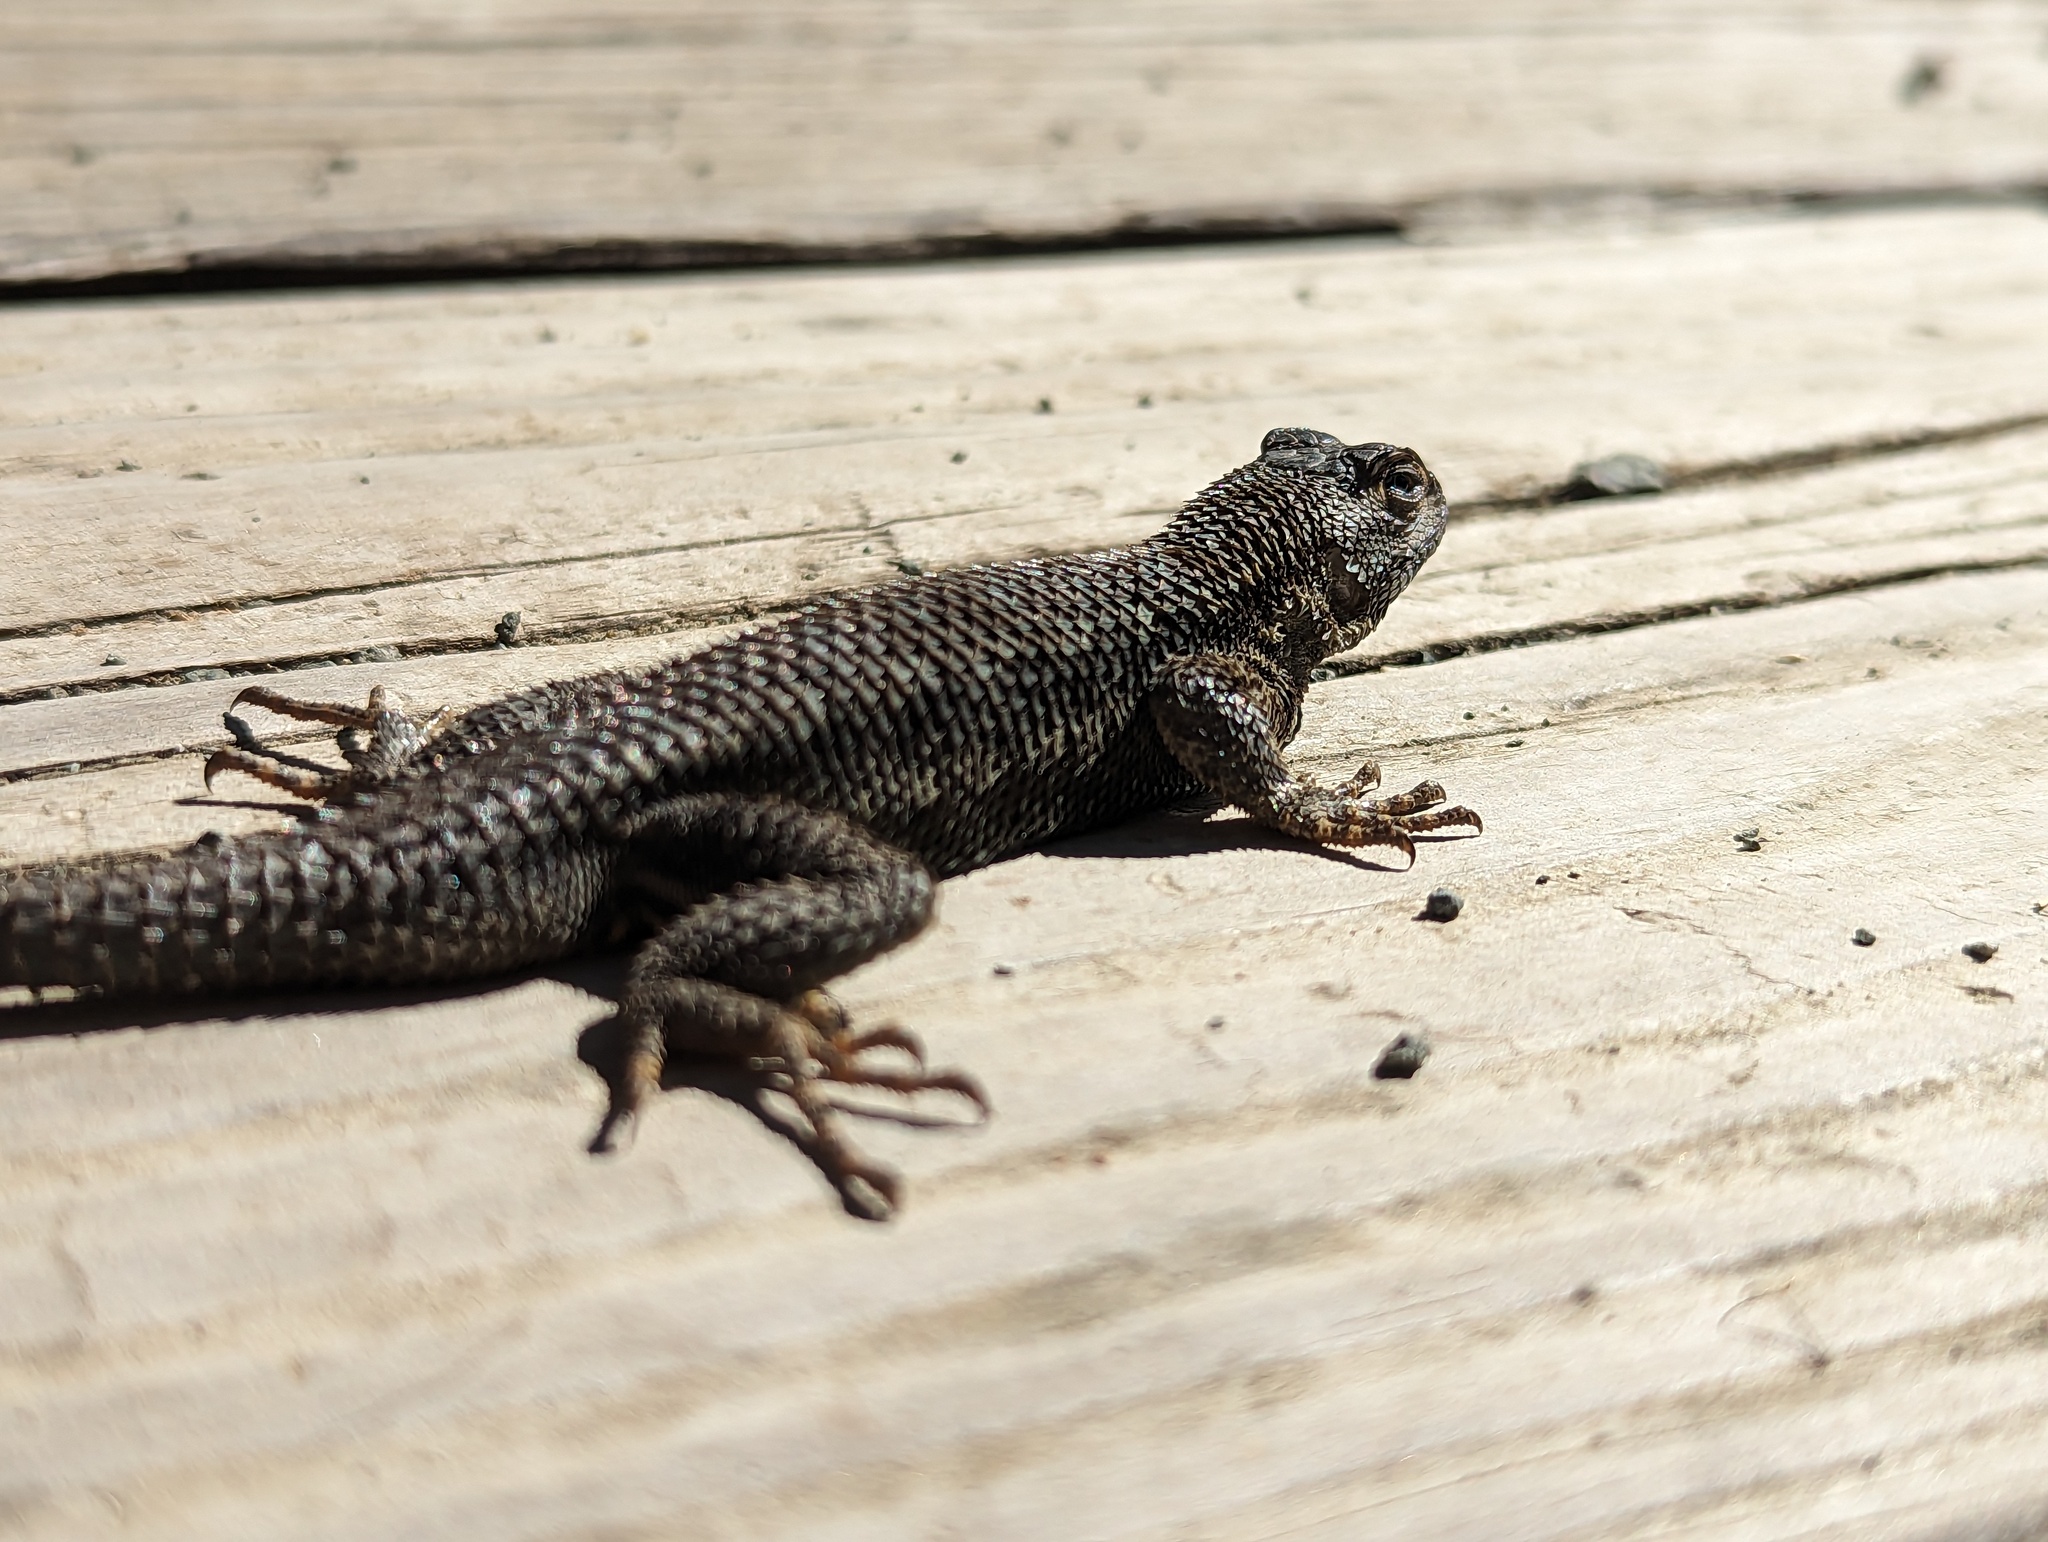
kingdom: Animalia
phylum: Chordata
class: Squamata
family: Phrynosomatidae
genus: Sceloporus
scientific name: Sceloporus occidentalis
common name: Western fence lizard
